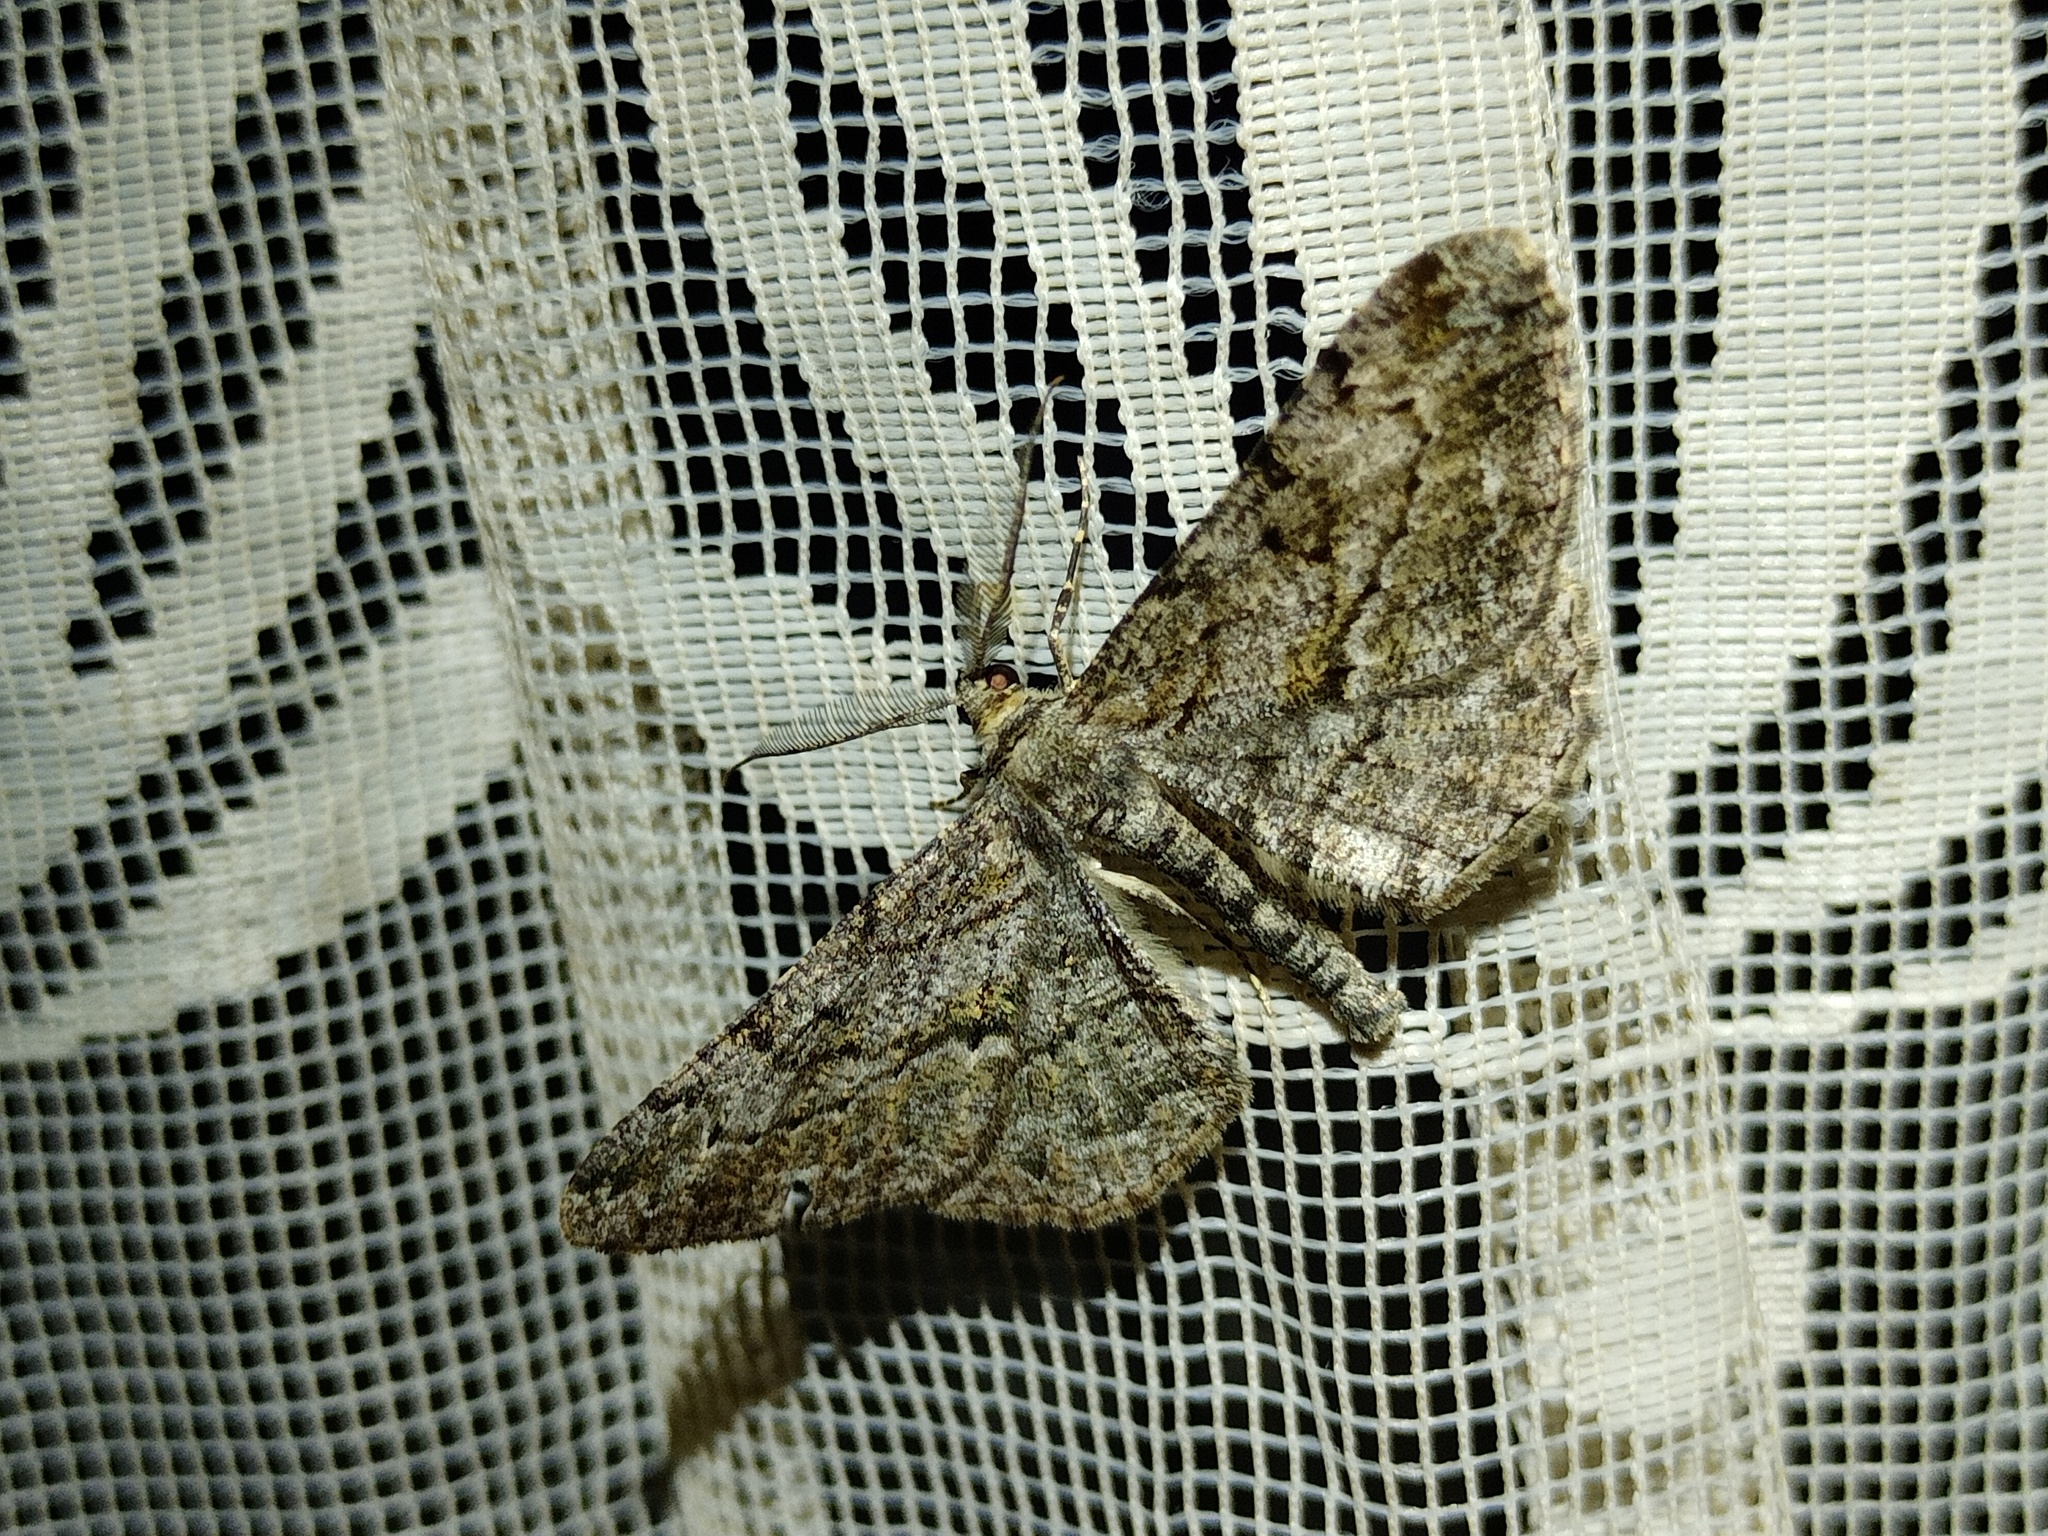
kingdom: Animalia
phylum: Arthropoda
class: Insecta
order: Lepidoptera
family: Geometridae
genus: Peribatodes
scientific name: Peribatodes rhomboidaria
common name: Willow beauty
